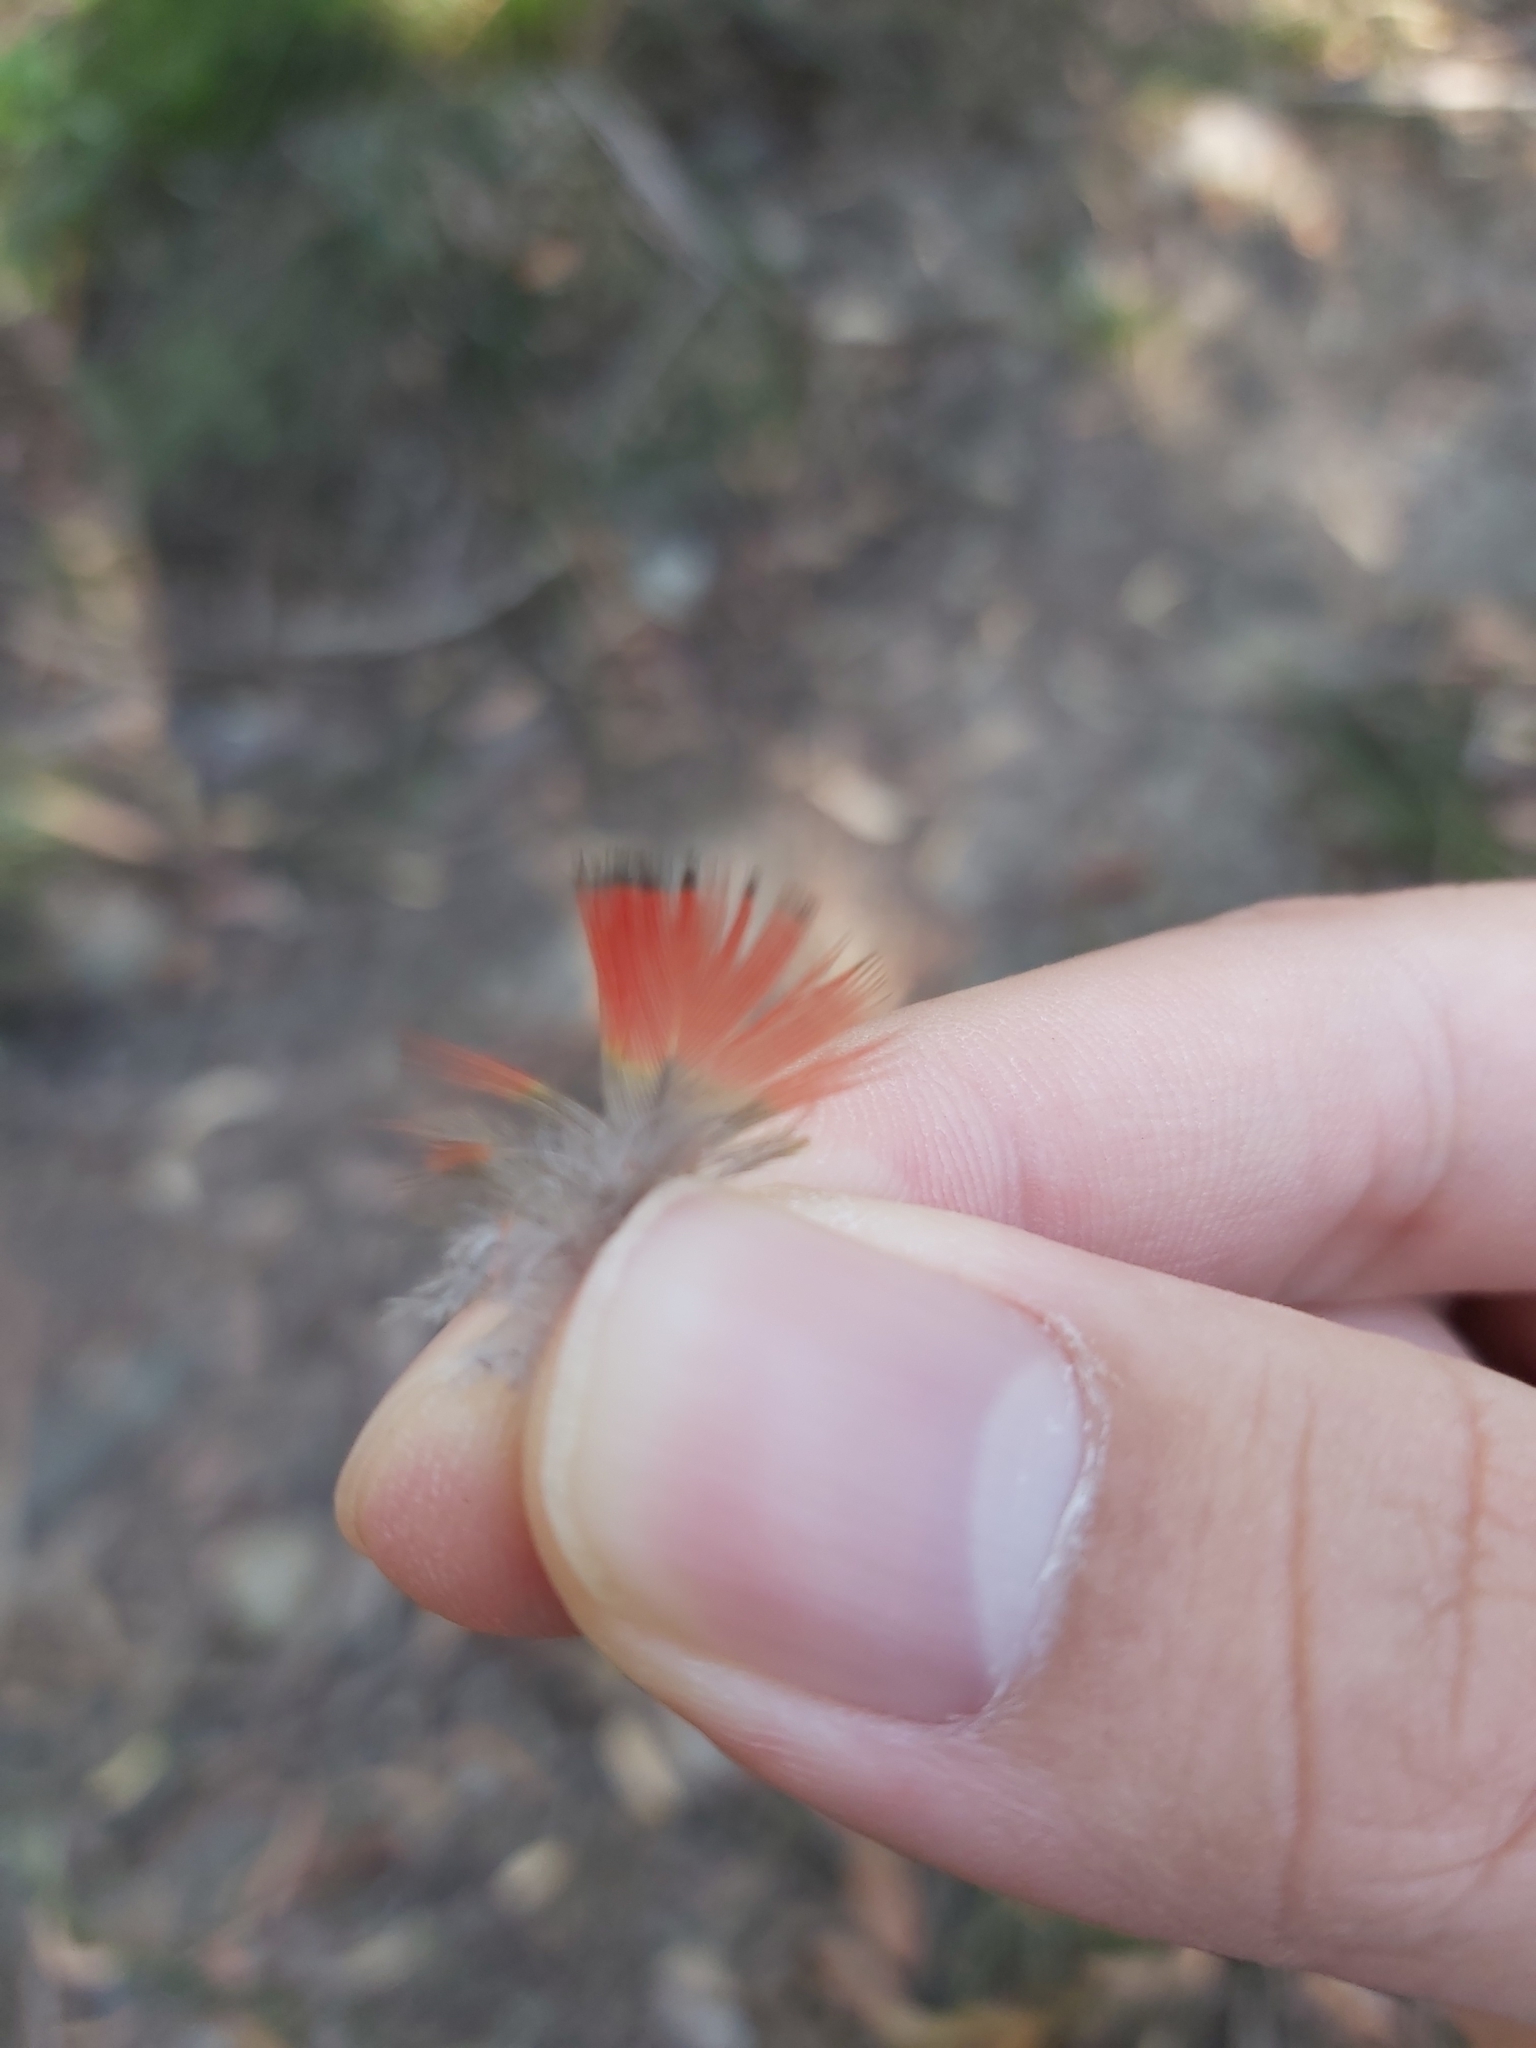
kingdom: Animalia
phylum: Chordata
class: Aves
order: Psittaciformes
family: Psittacidae
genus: Trichoglossus
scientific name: Trichoglossus haematodus
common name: Coconut lorikeet
